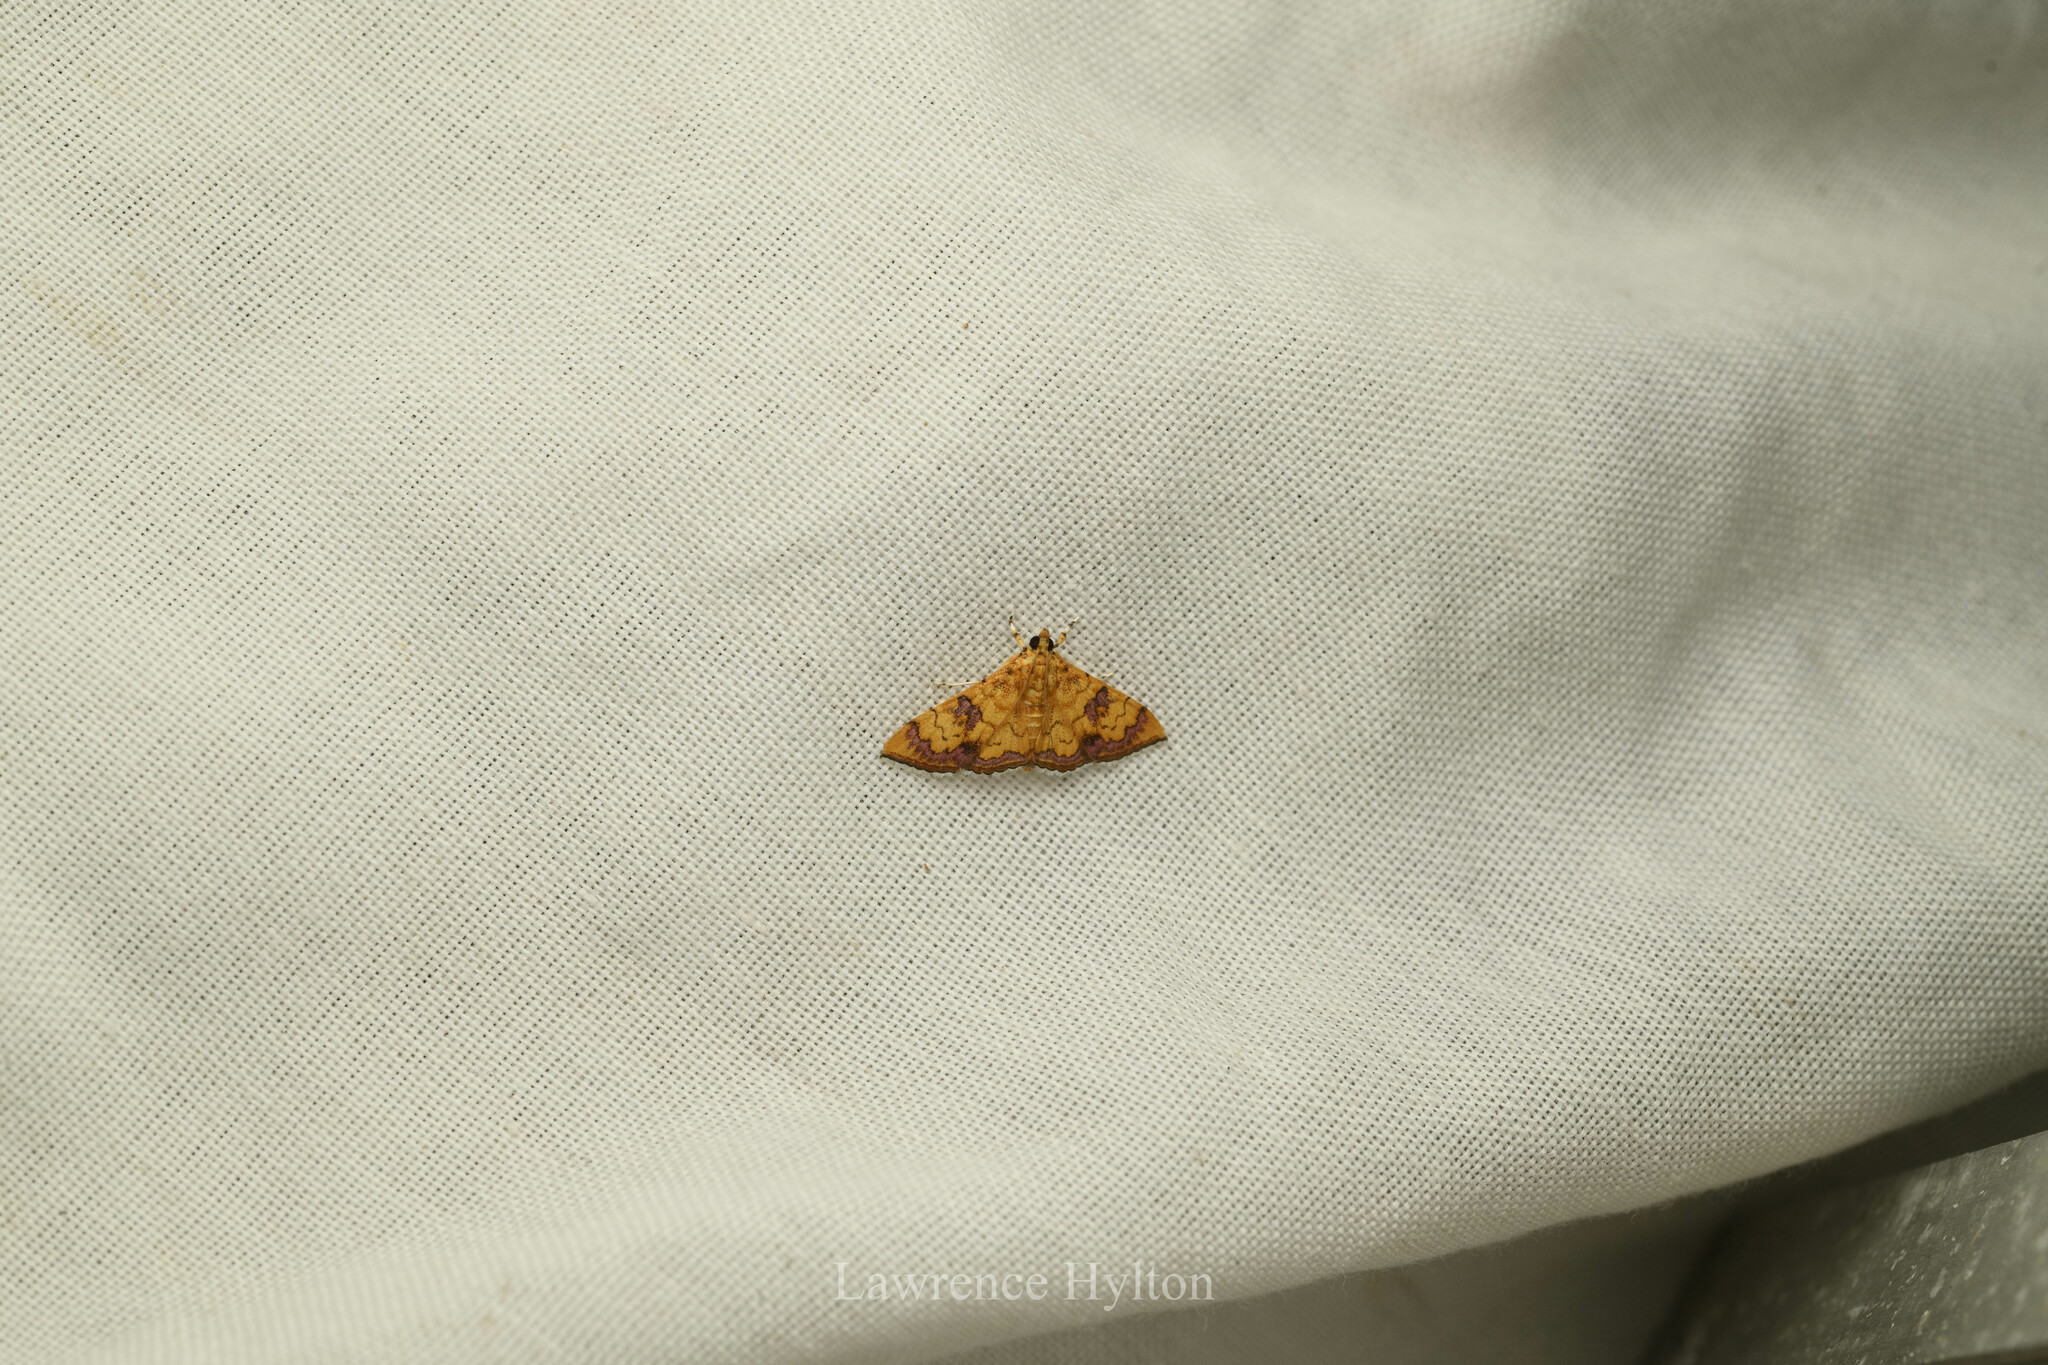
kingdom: Animalia
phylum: Arthropoda
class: Insecta
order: Lepidoptera
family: Crambidae
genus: Isocentris
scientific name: Isocentris filalis
